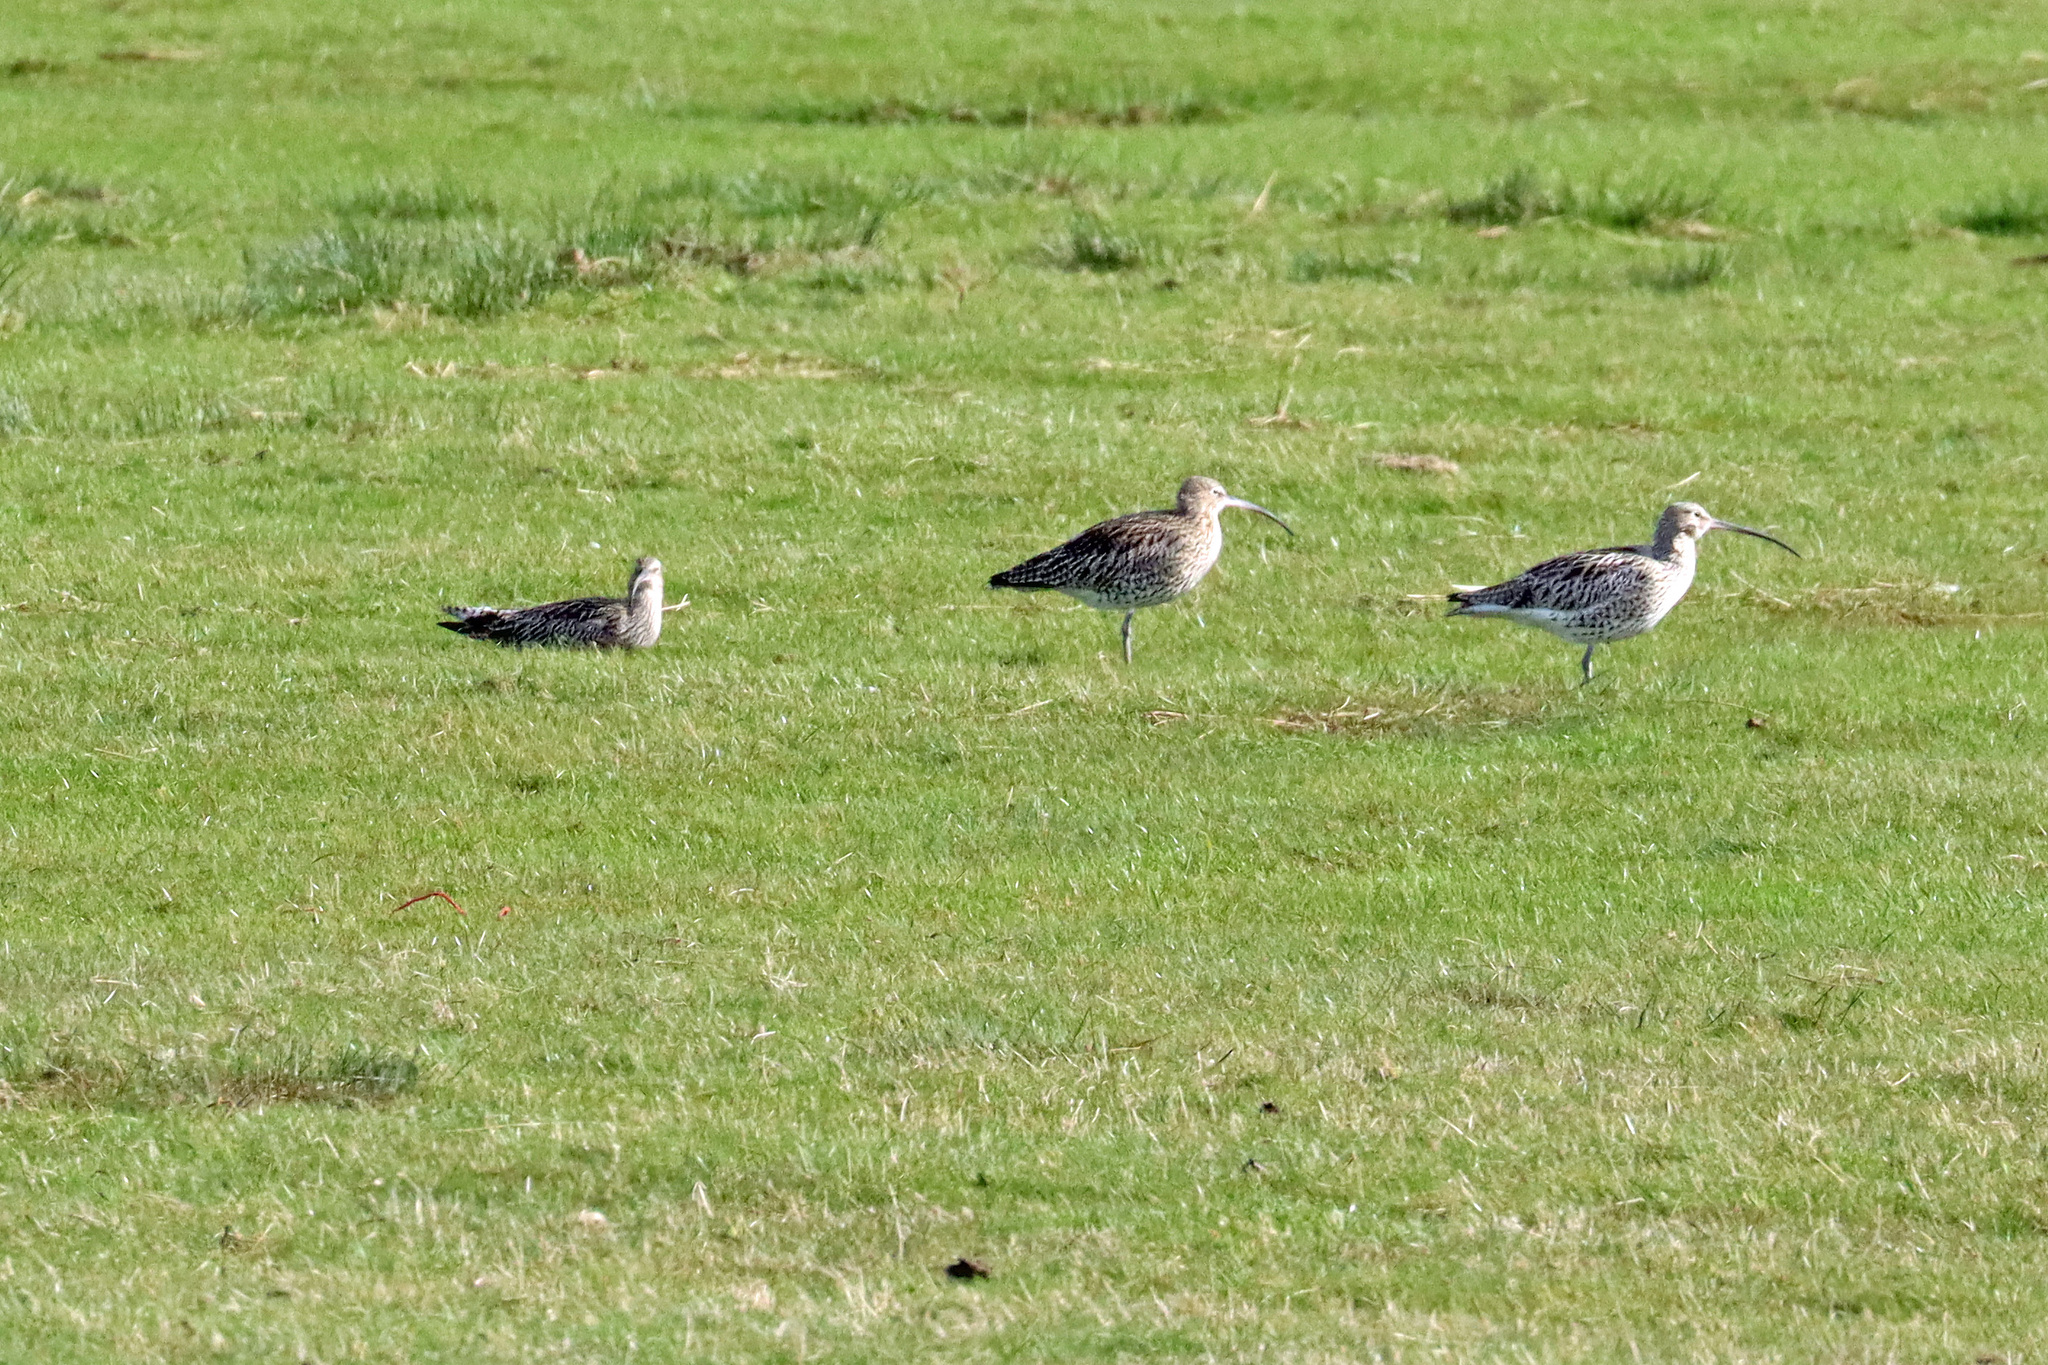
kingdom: Animalia
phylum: Chordata
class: Aves
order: Charadriiformes
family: Scolopacidae
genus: Numenius
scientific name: Numenius arquata
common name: Eurasian curlew
